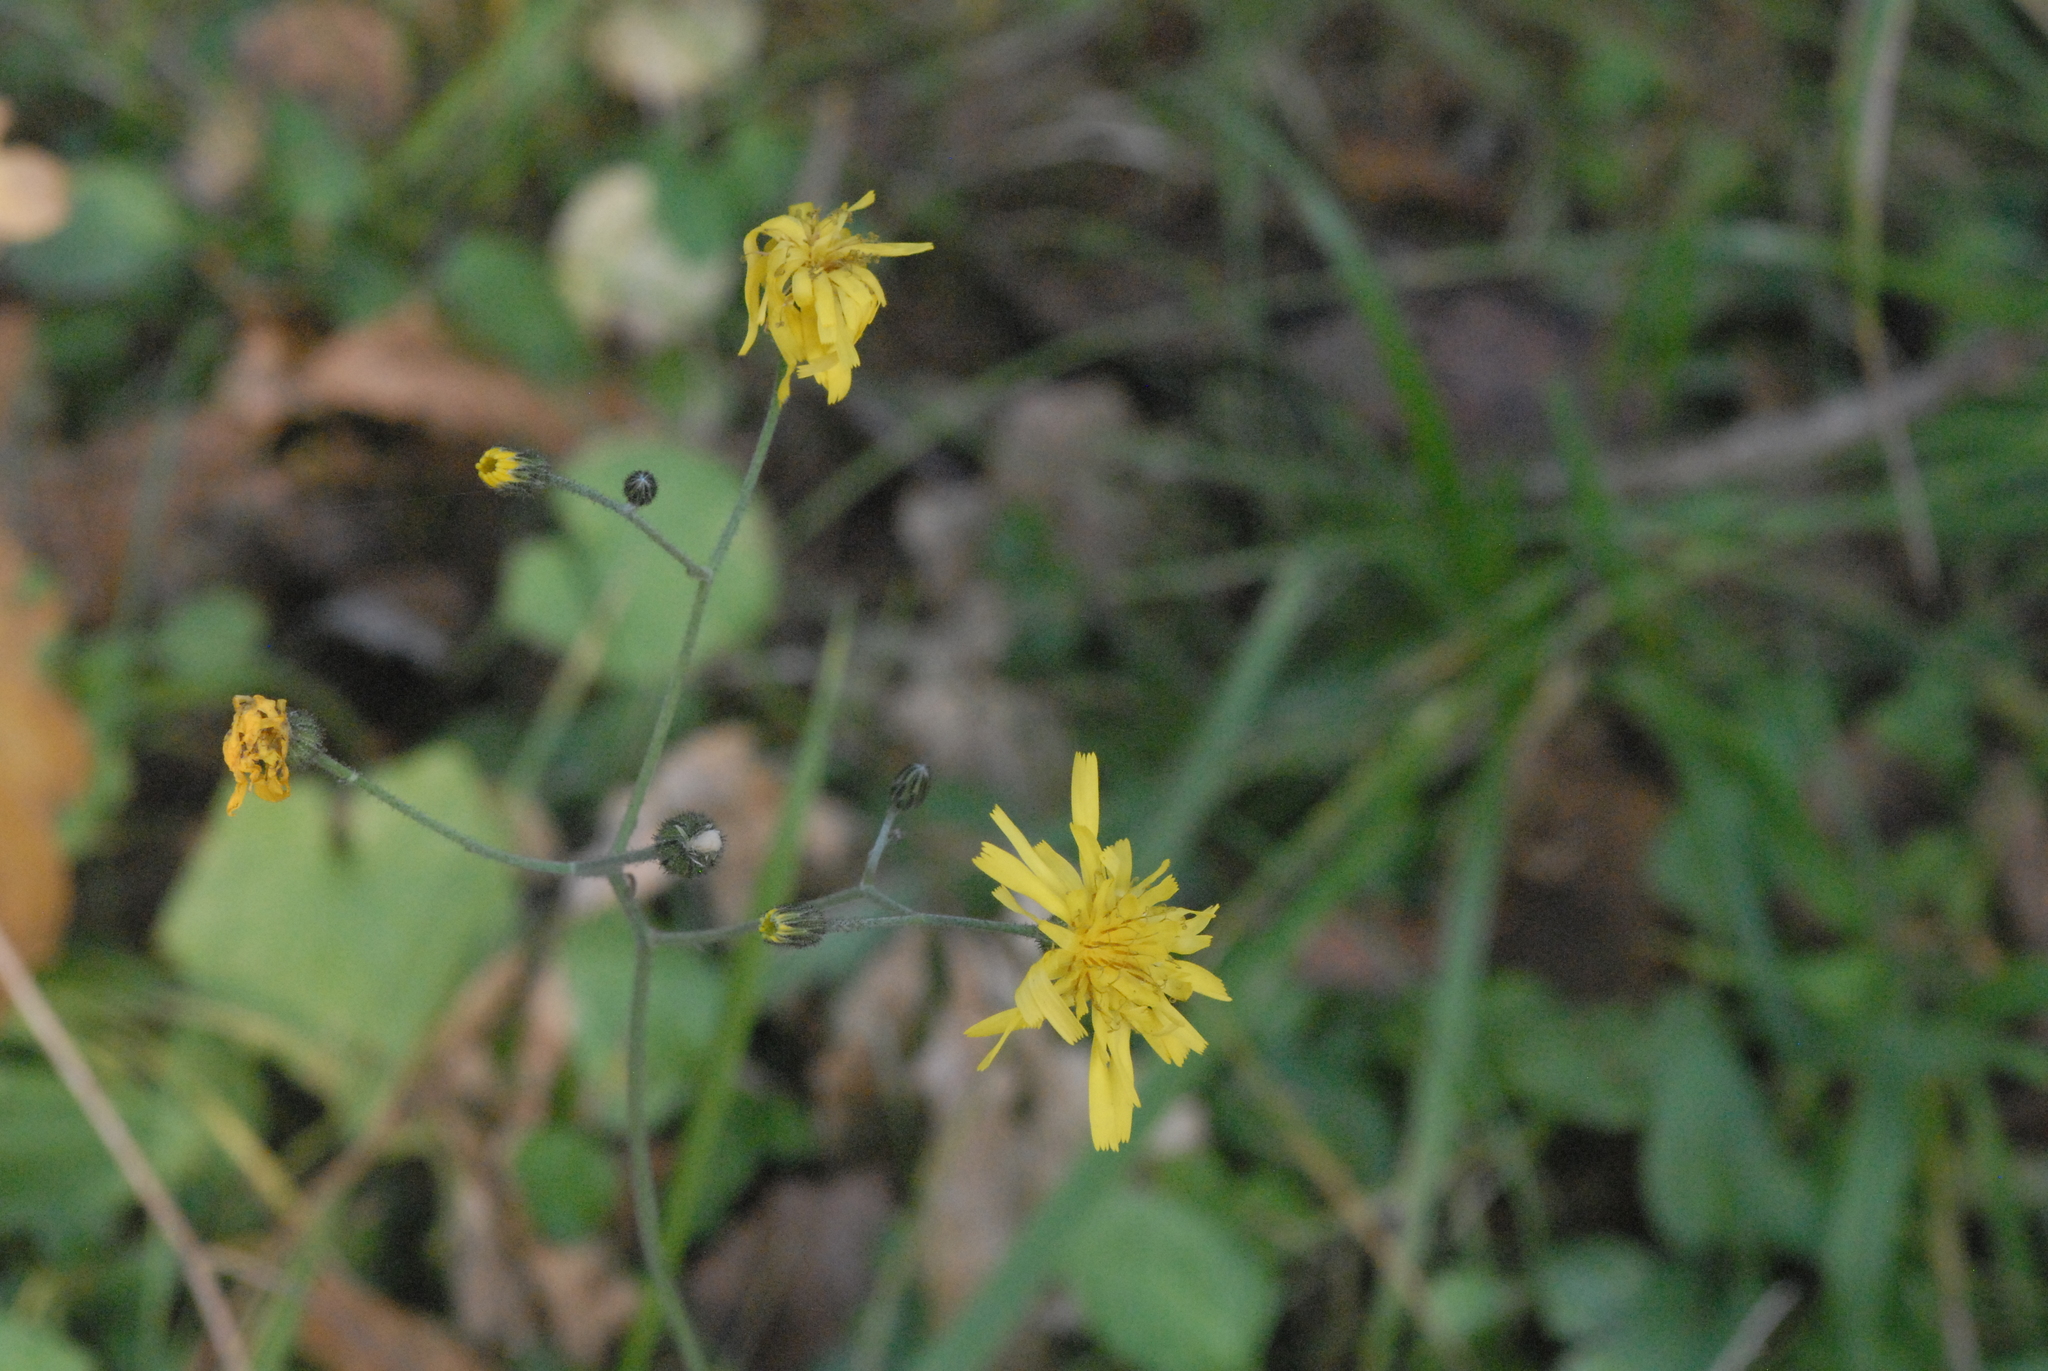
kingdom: Plantae
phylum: Tracheophyta
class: Magnoliopsida
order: Asterales
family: Asteraceae
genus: Hieracium
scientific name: Hieracium murorum
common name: Wall hawkweed
